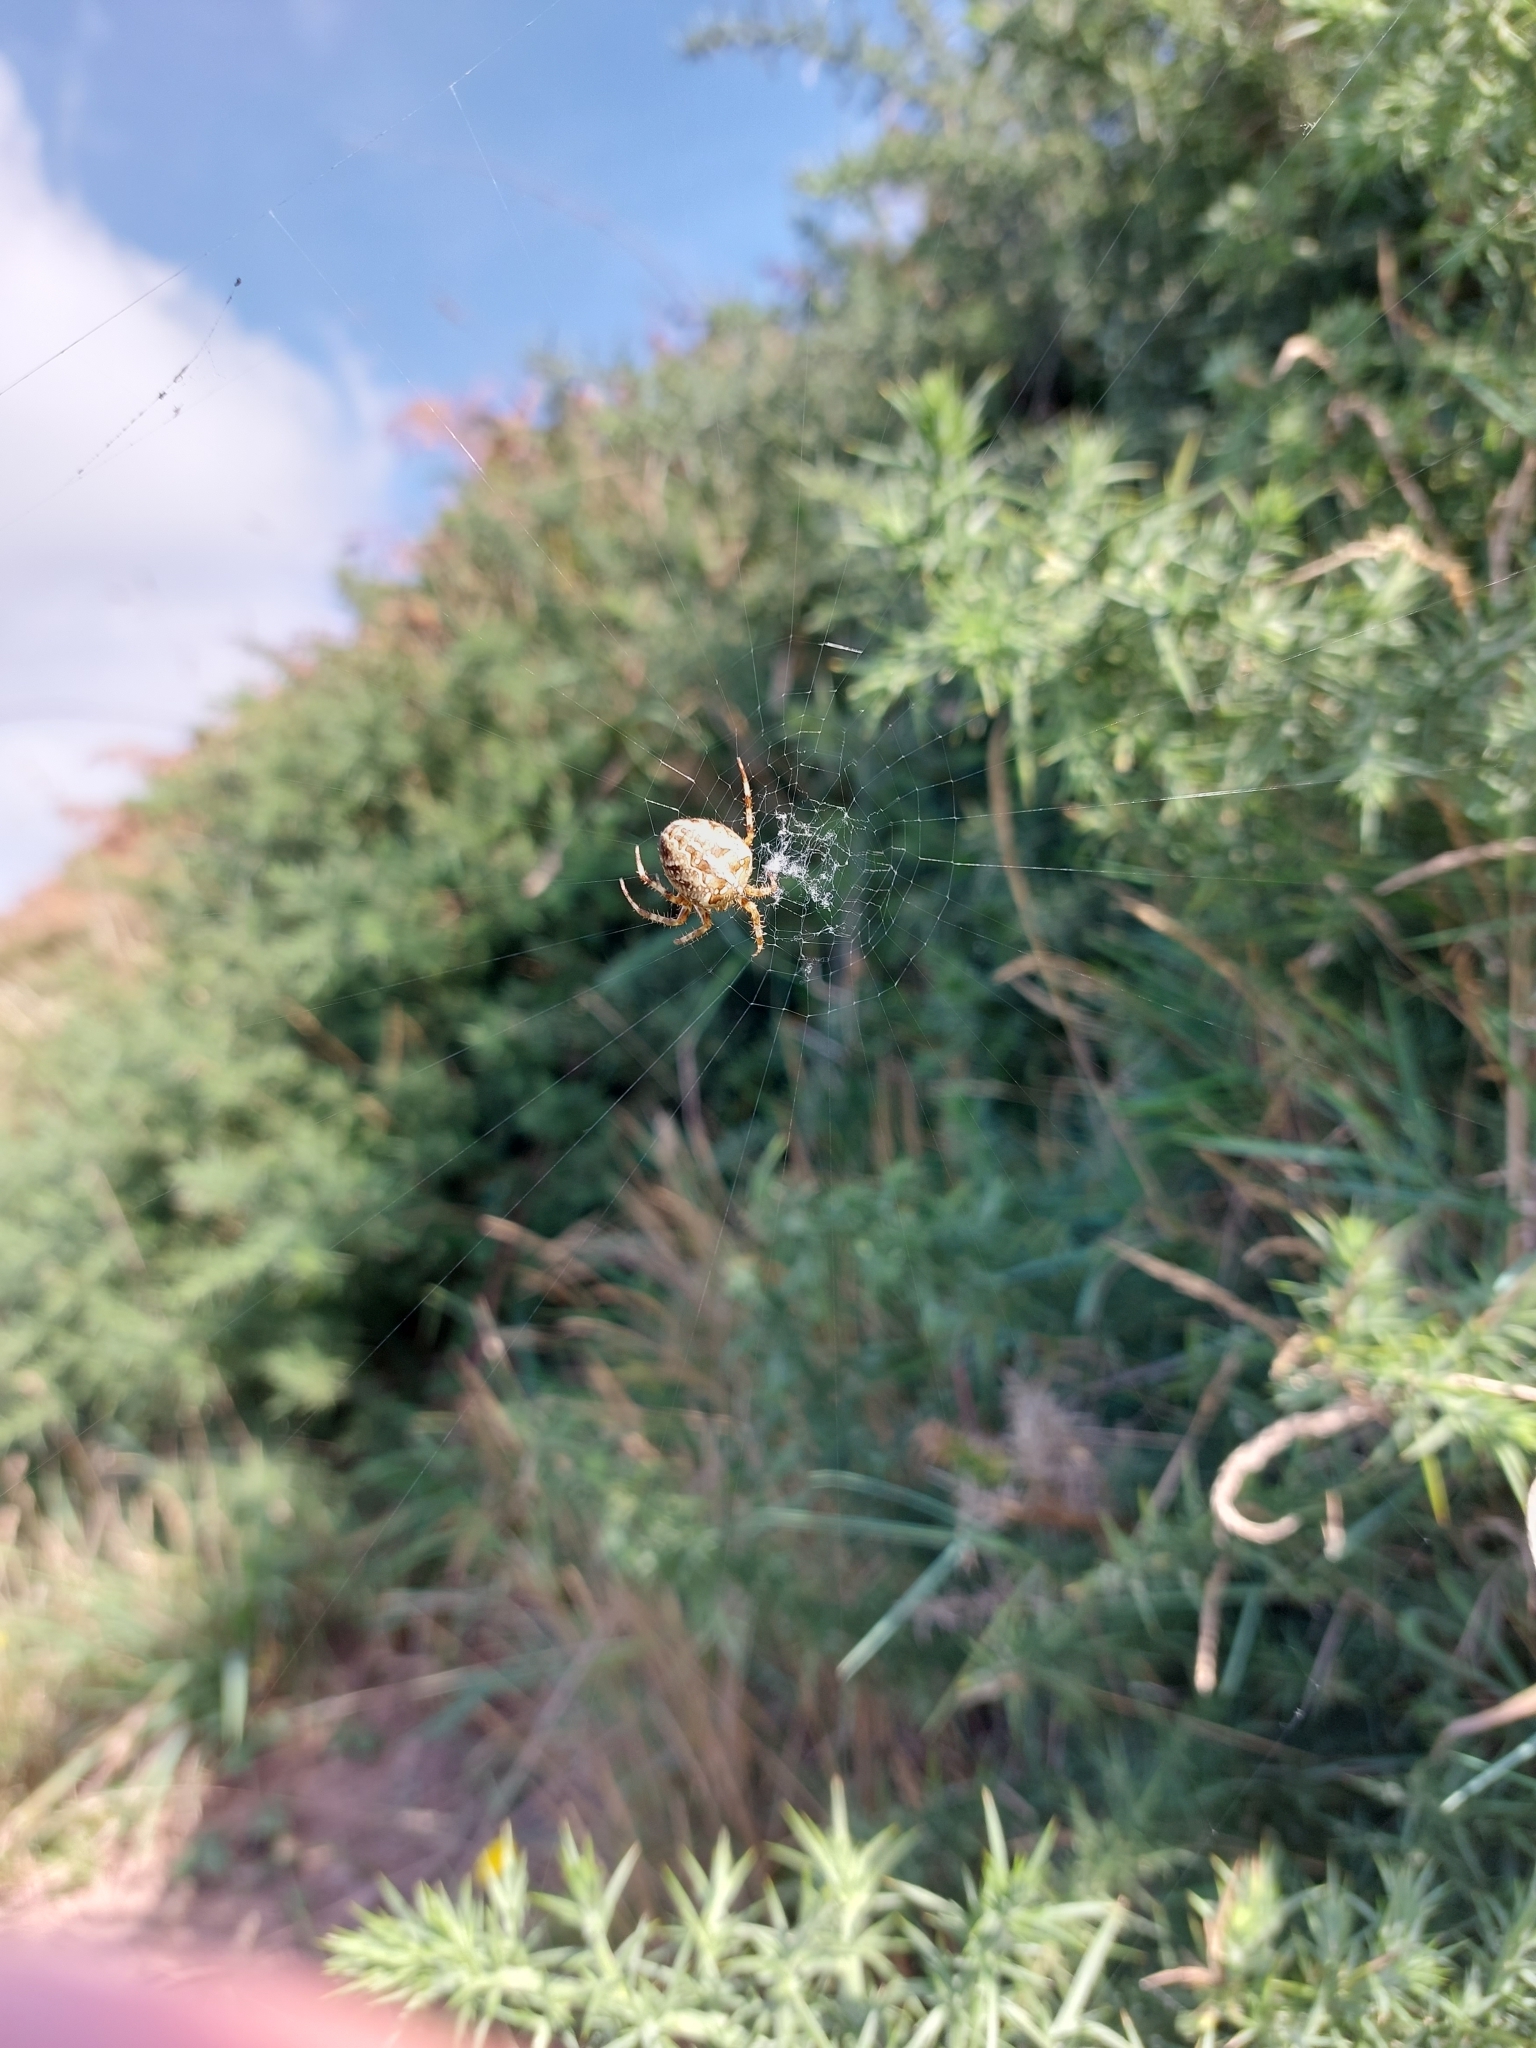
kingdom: Animalia
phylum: Arthropoda
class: Arachnida
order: Araneae
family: Araneidae
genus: Araneus
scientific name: Araneus diadematus
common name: Cross orbweaver
